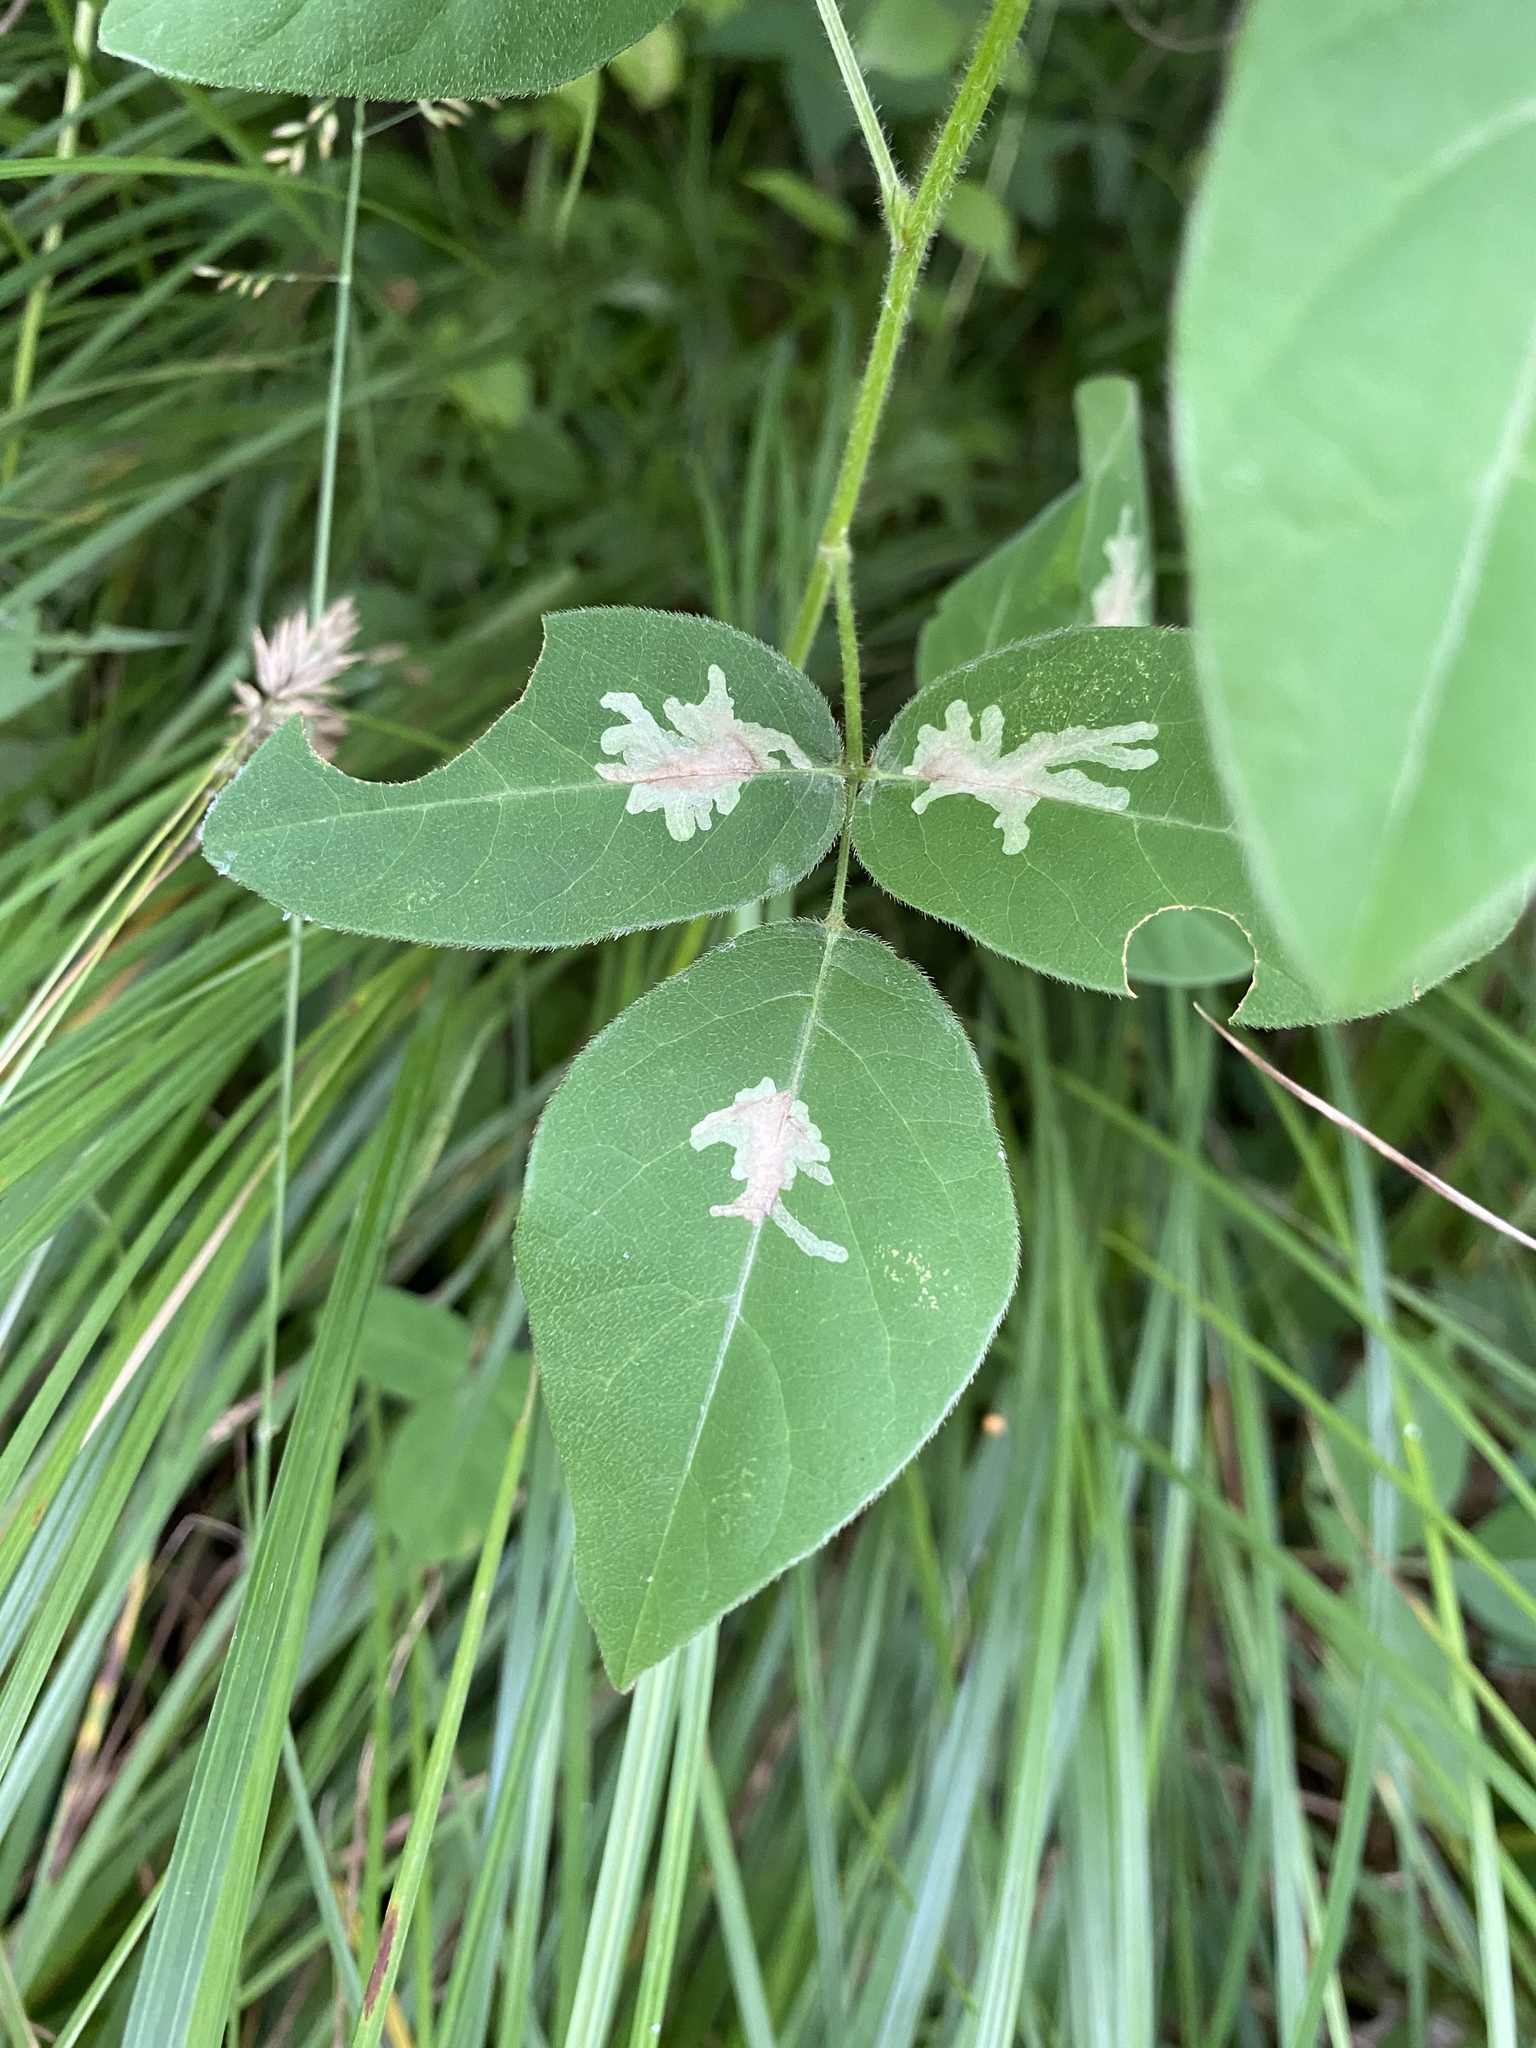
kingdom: Animalia
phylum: Arthropoda
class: Insecta
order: Lepidoptera
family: Gracillariidae
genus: Parectopa
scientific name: Parectopa robiniella
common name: Locust digitate leafminer
